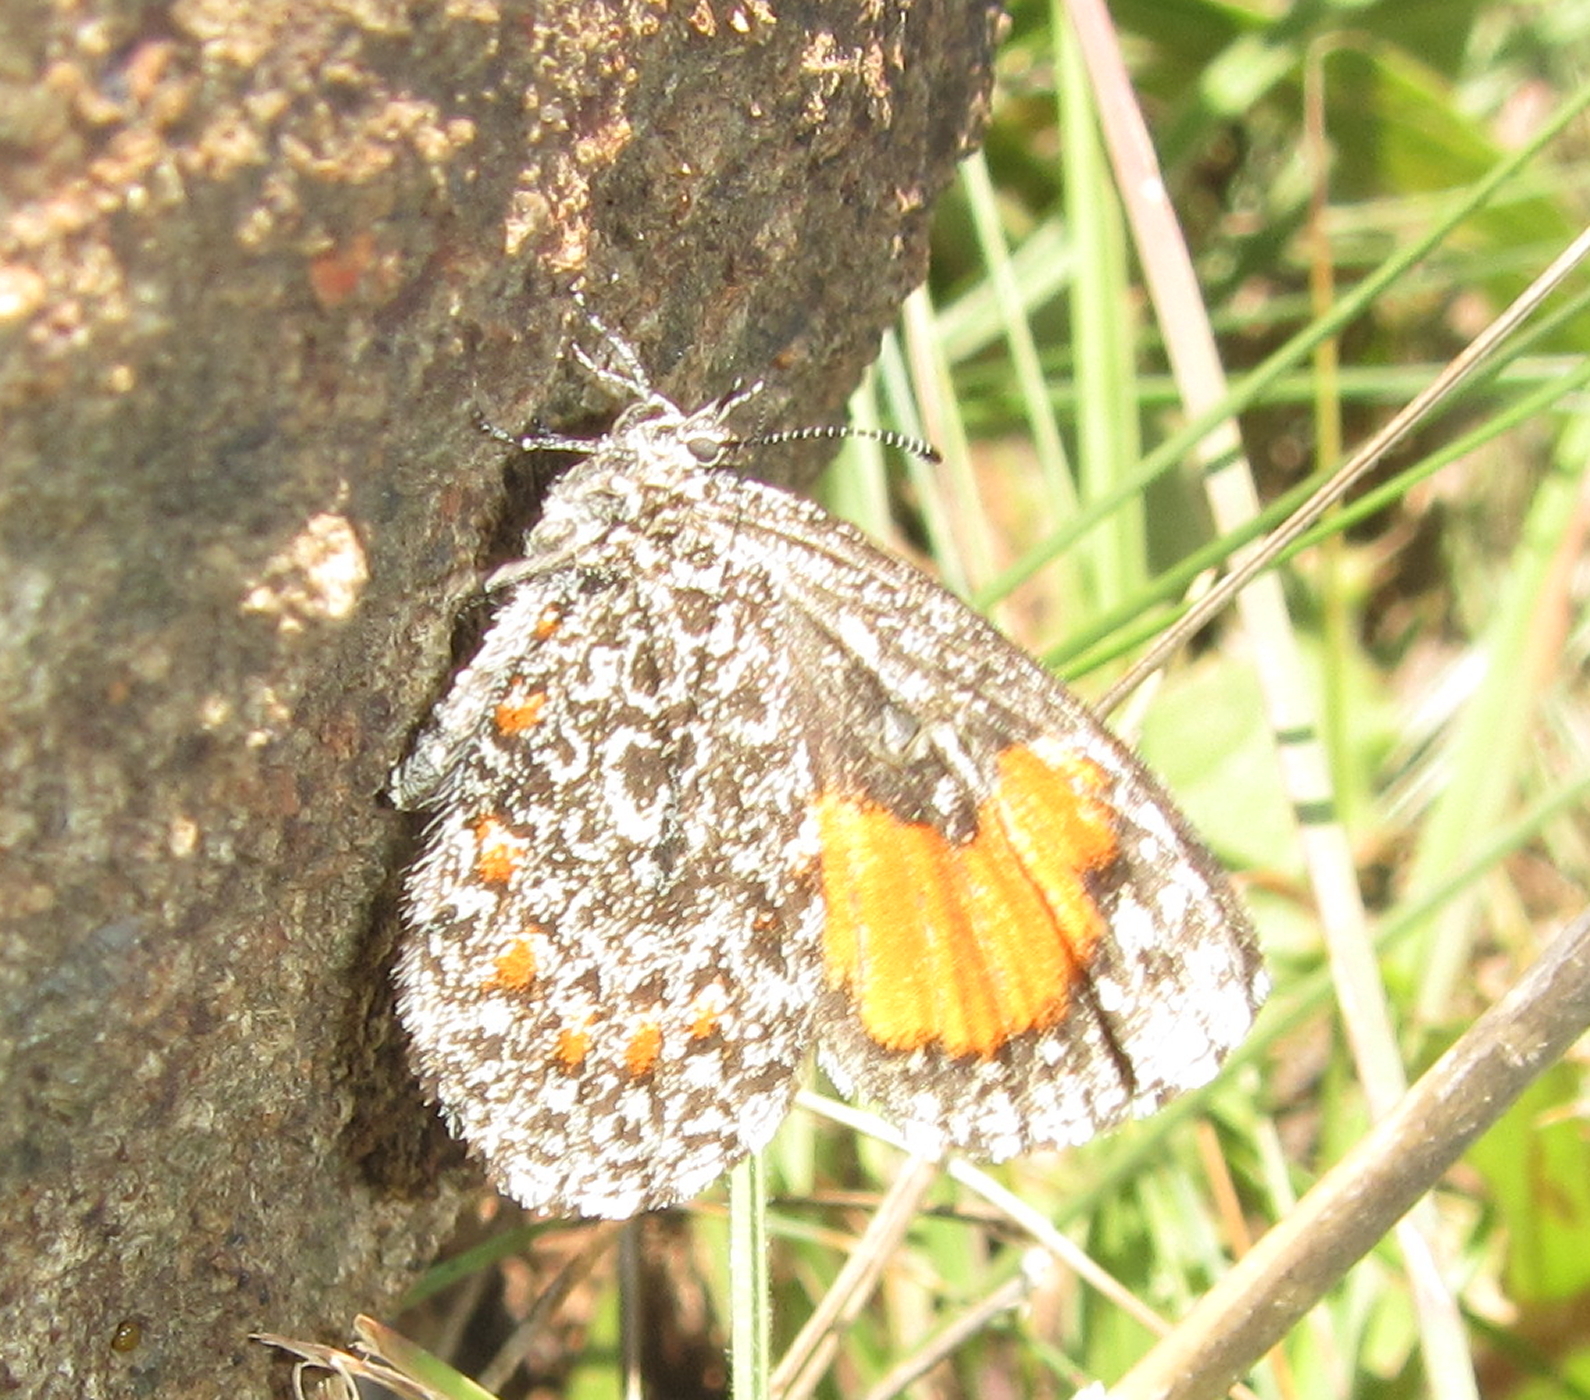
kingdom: Animalia
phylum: Arthropoda
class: Insecta
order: Lepidoptera
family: Lycaenidae
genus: Durbania
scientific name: Durbania amakosa
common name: Amakosa rocksitter
